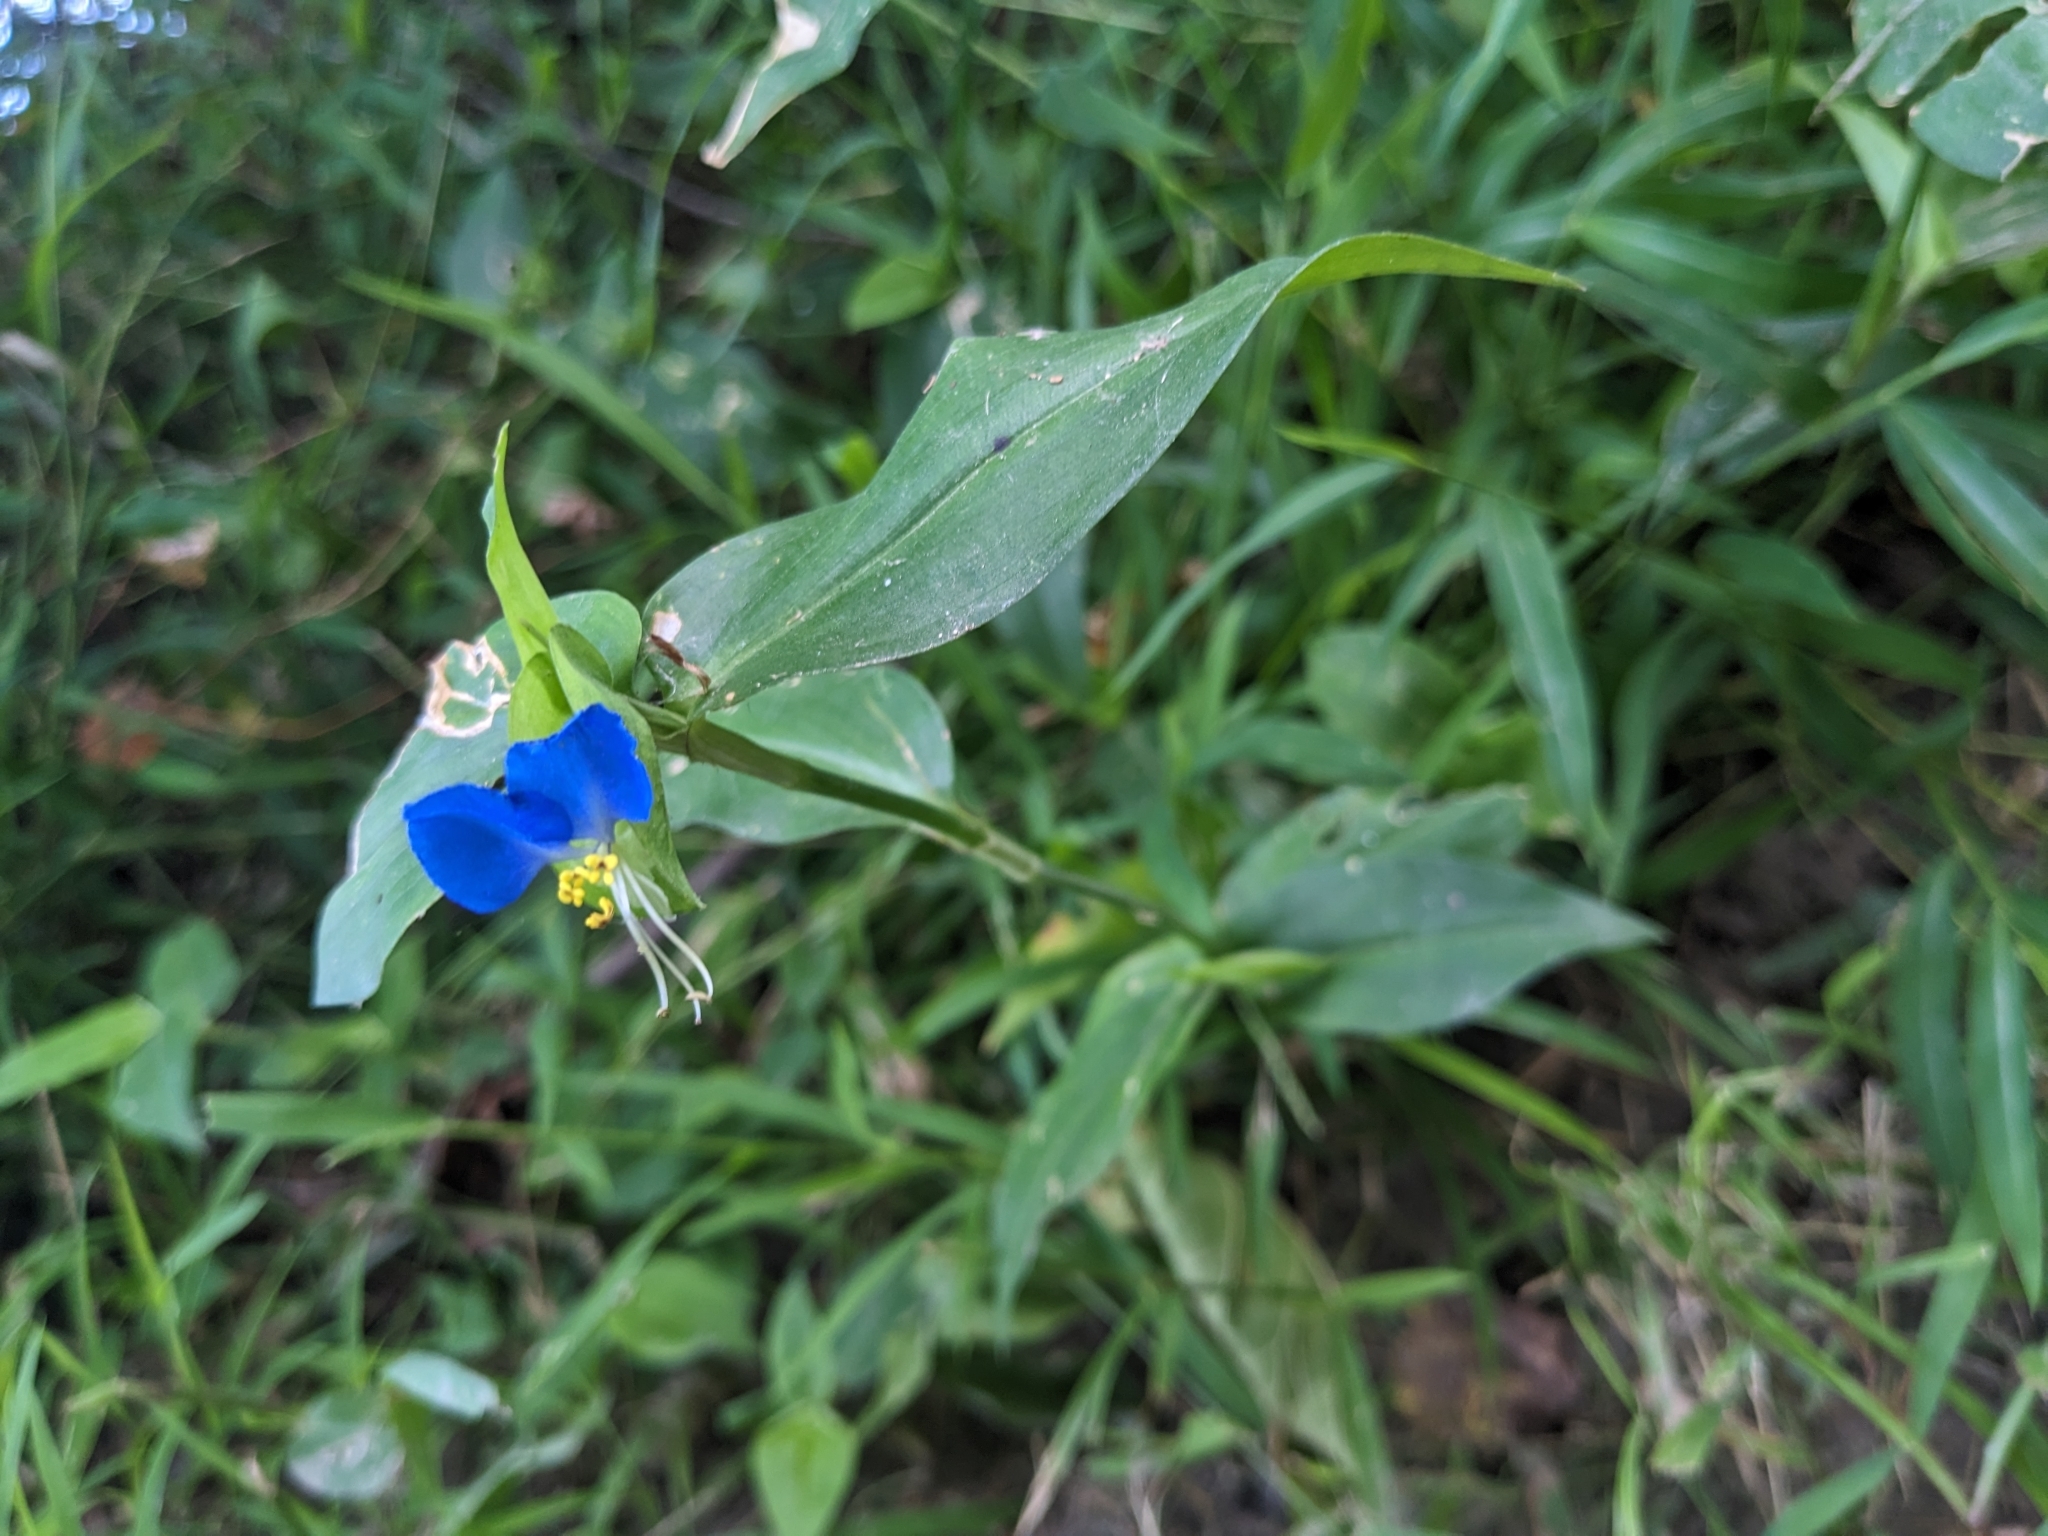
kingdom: Plantae
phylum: Tracheophyta
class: Liliopsida
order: Commelinales
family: Commelinaceae
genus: Commelina
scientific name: Commelina communis
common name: Asiatic dayflower
